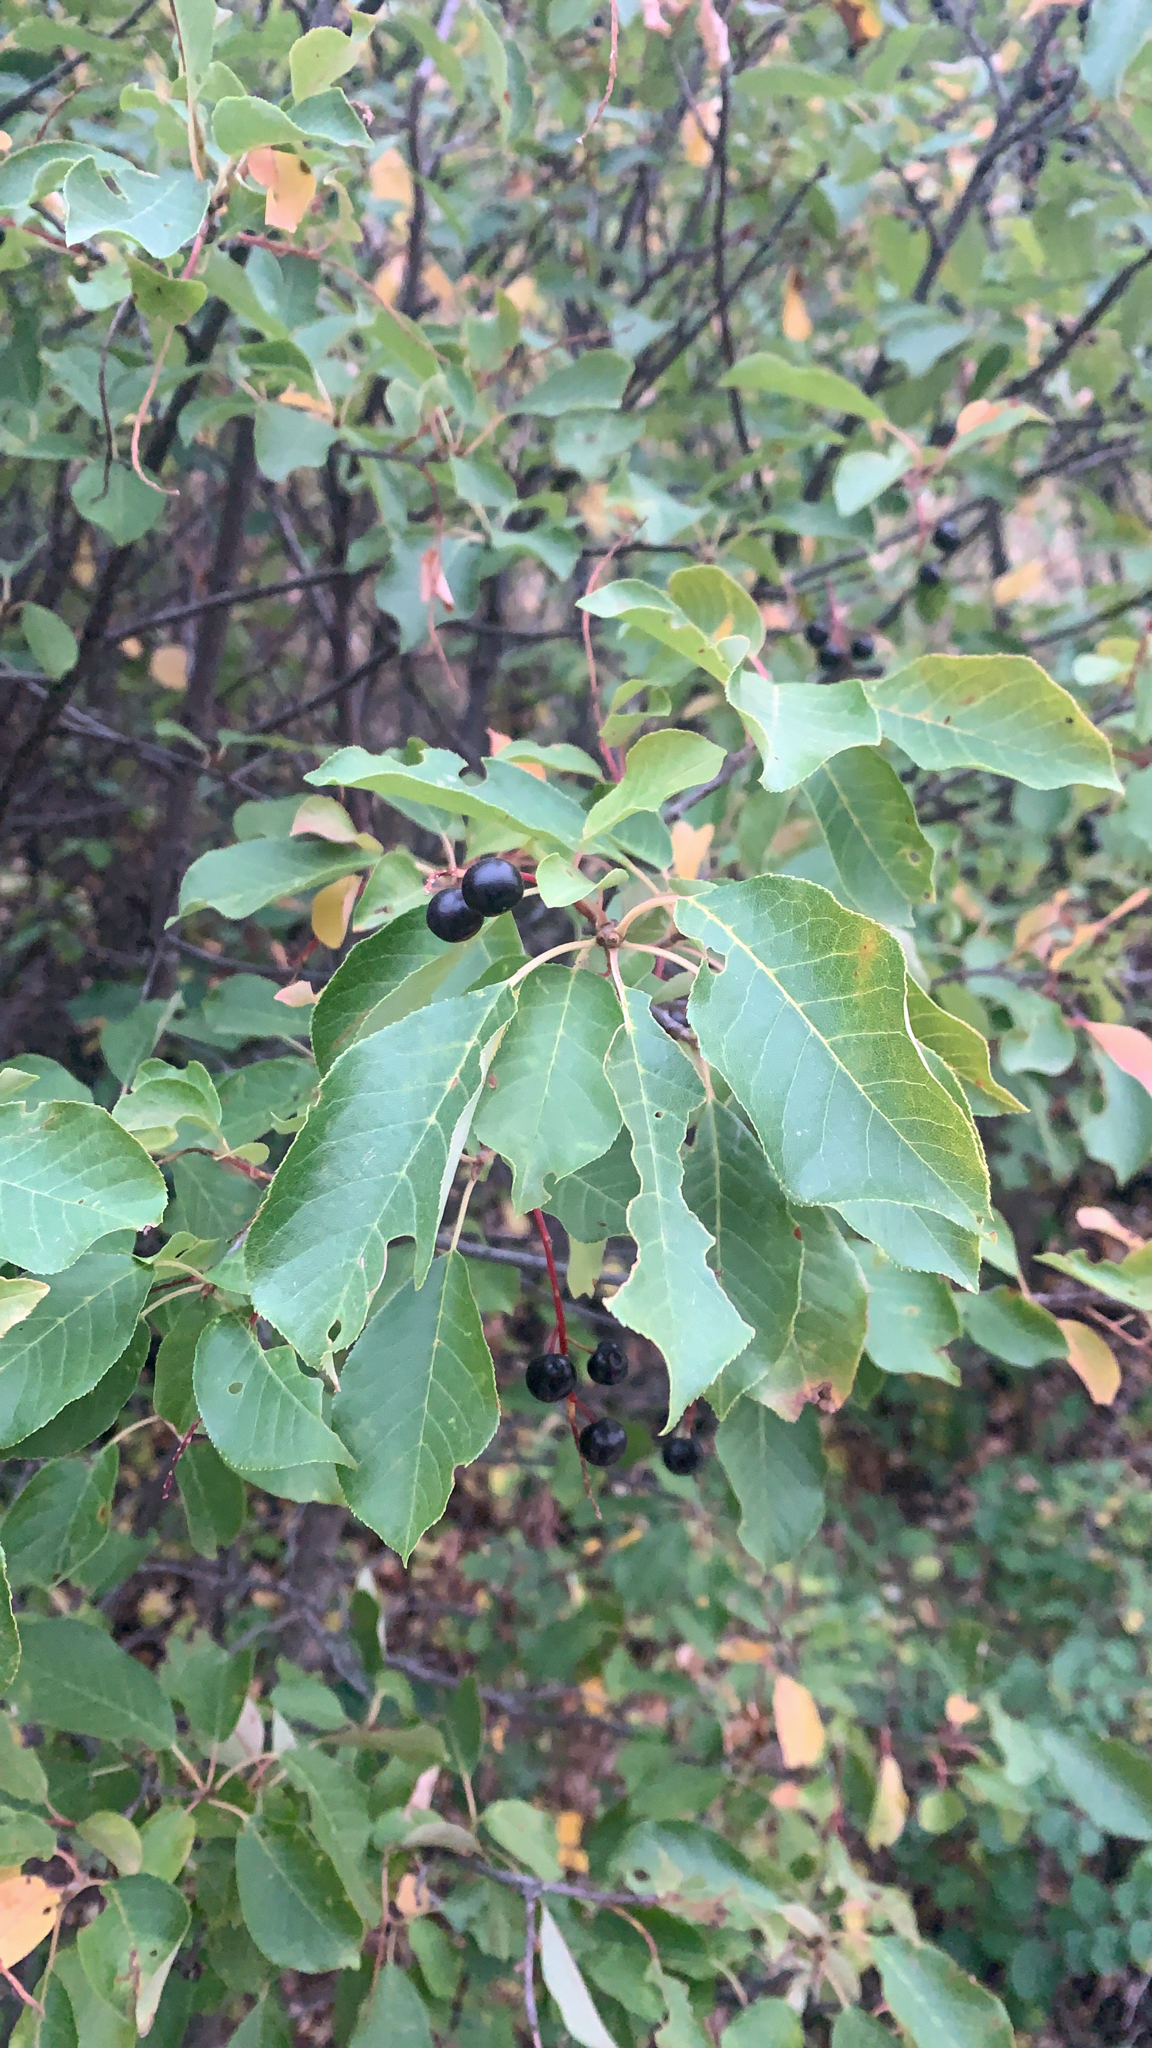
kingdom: Plantae
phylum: Tracheophyta
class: Magnoliopsida
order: Rosales
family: Rosaceae
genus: Prunus
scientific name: Prunus virginiana
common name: Chokecherry
